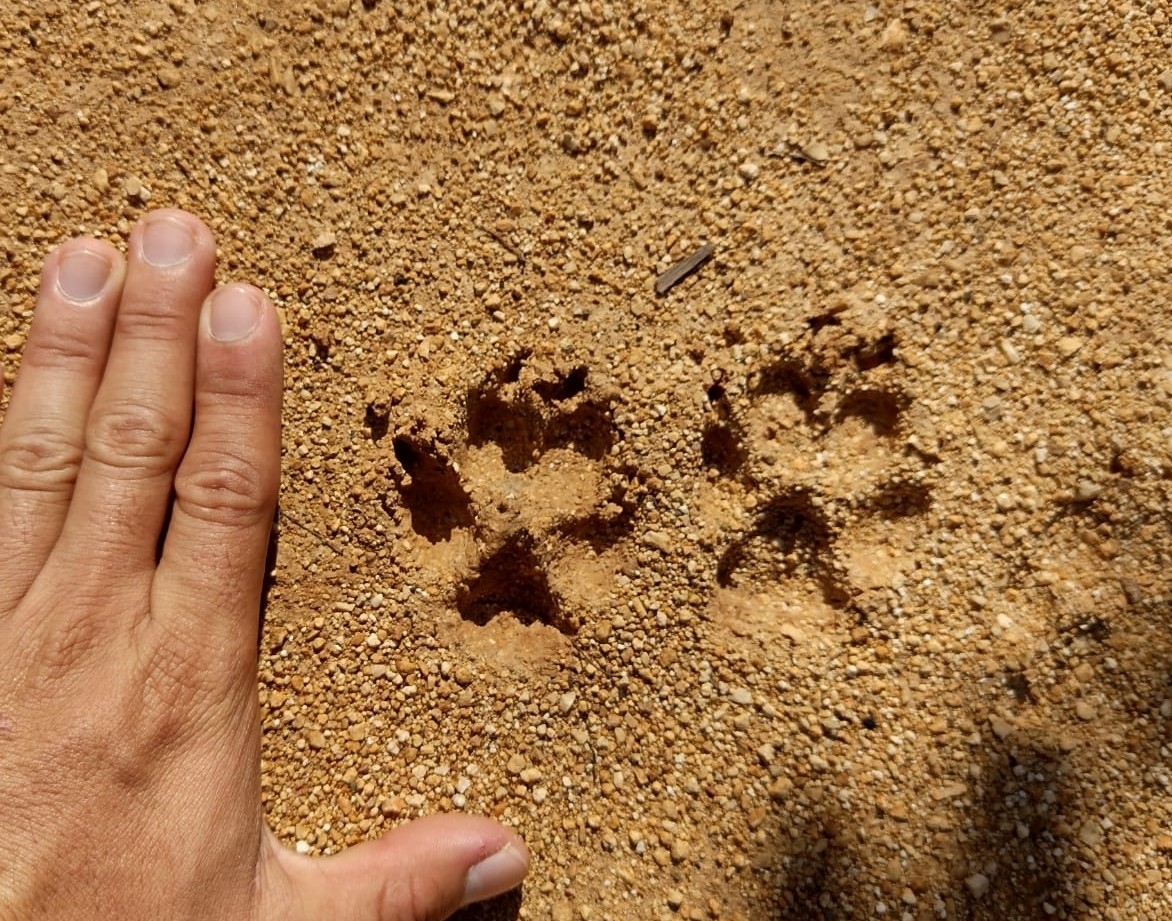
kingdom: Animalia
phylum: Chordata
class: Mammalia
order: Carnivora
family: Canidae
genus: Canis
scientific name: Canis lupus
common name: Gray wolf
